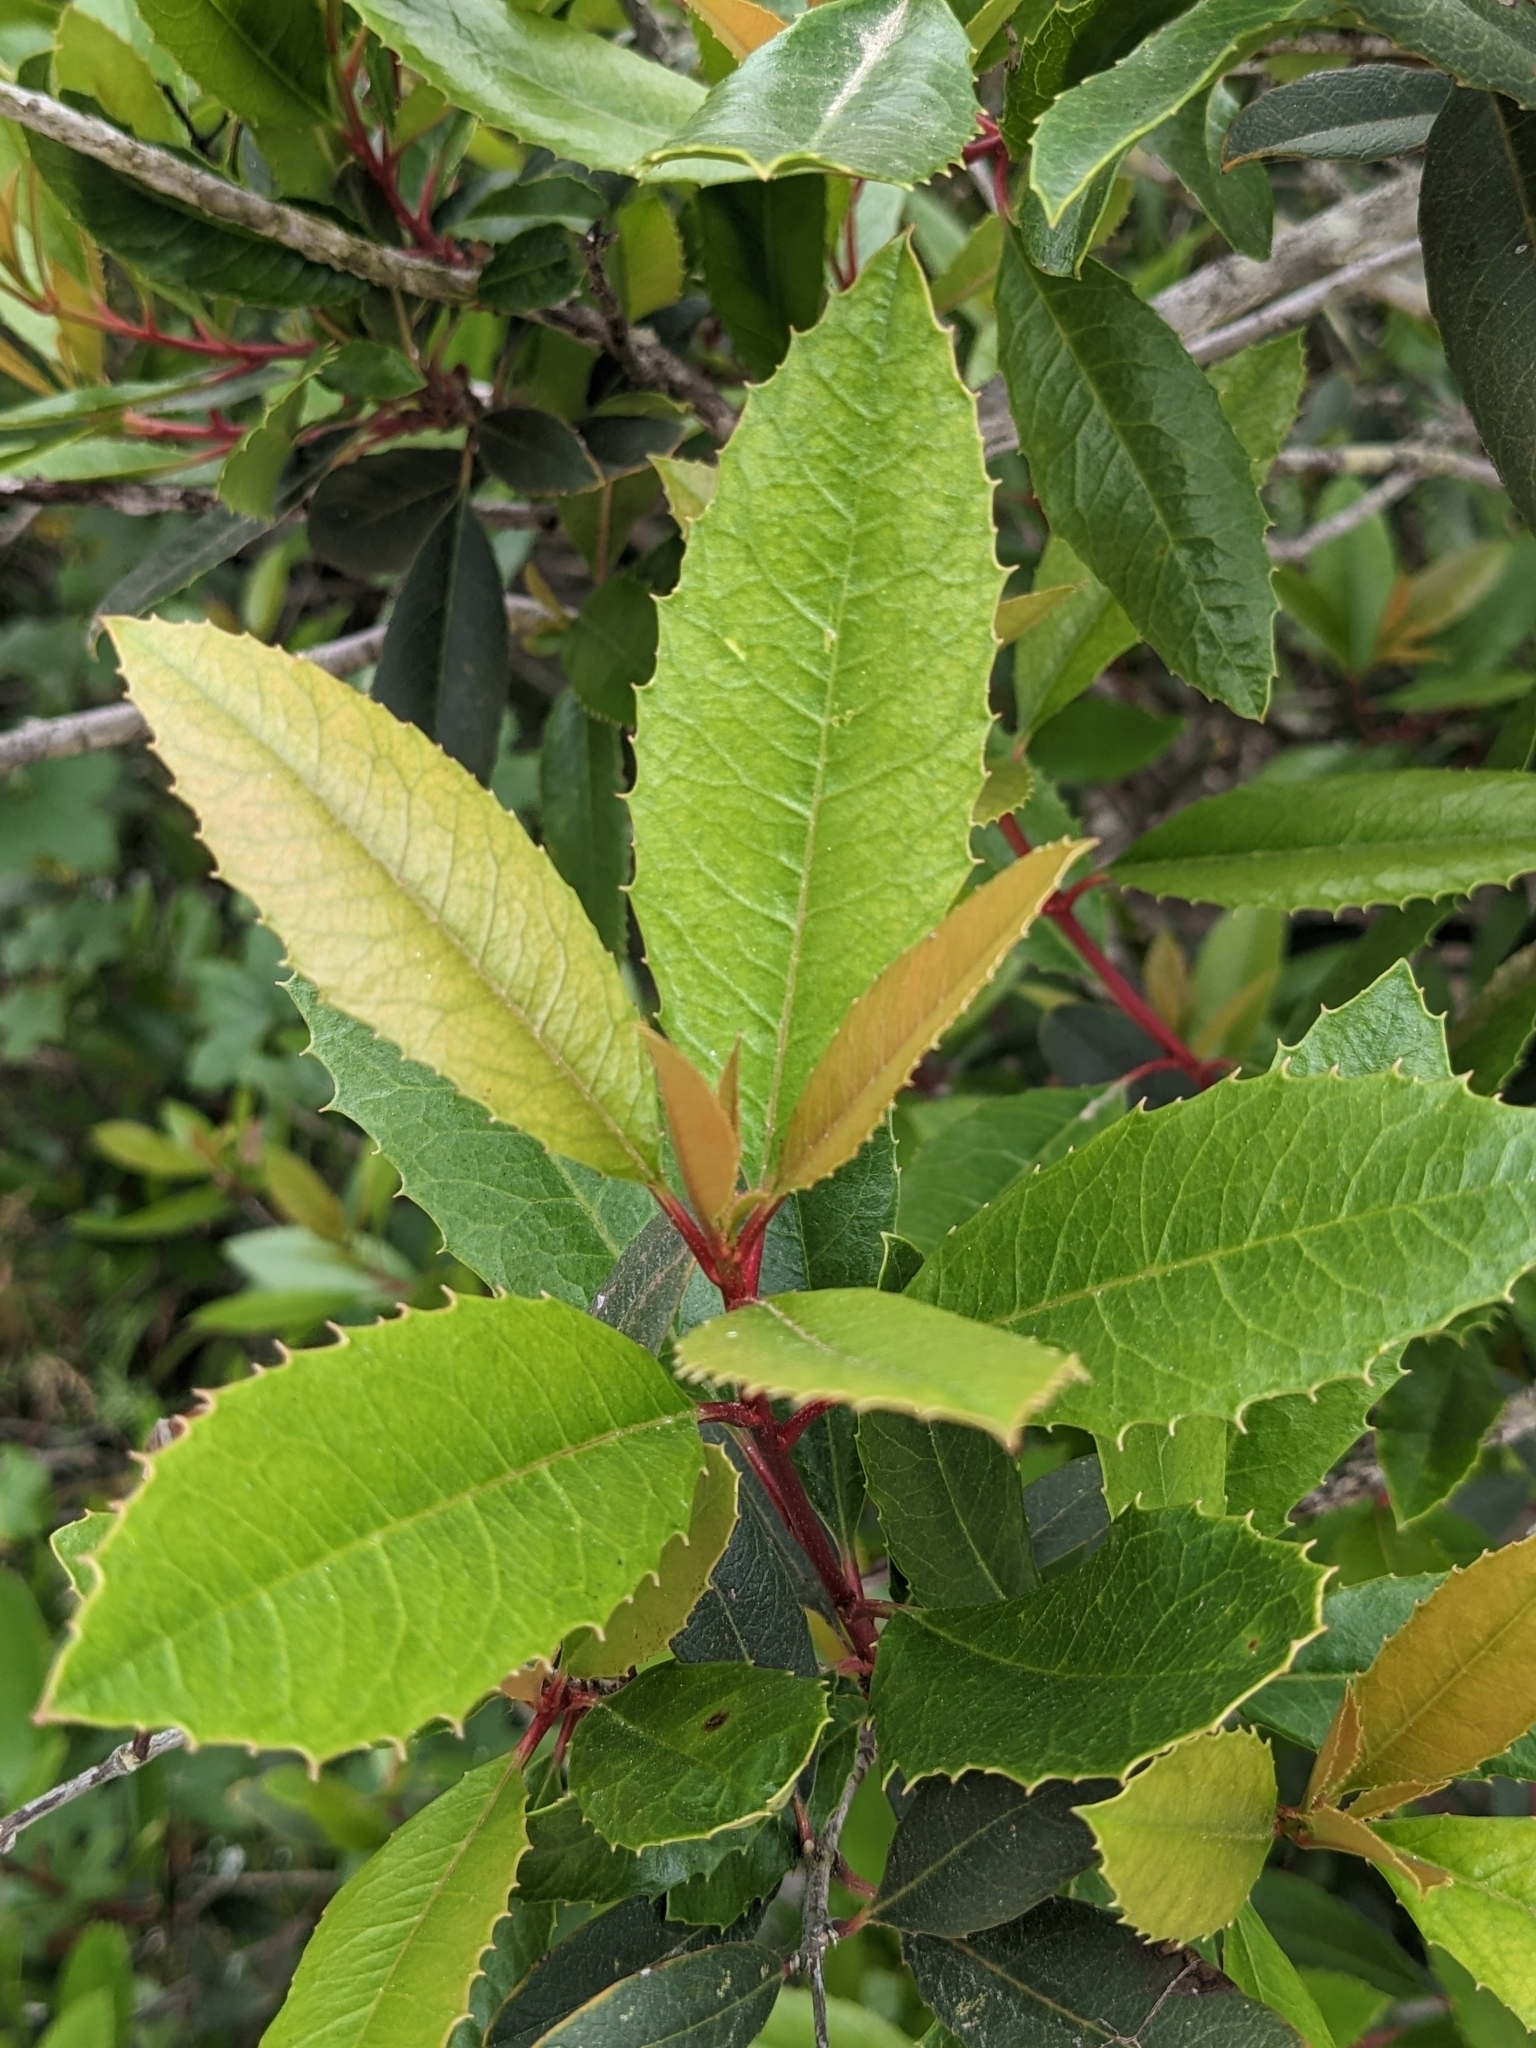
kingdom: Plantae
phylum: Tracheophyta
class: Magnoliopsida
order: Rosales
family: Rosaceae
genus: Heteromeles
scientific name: Heteromeles arbutifolia
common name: California-holly
